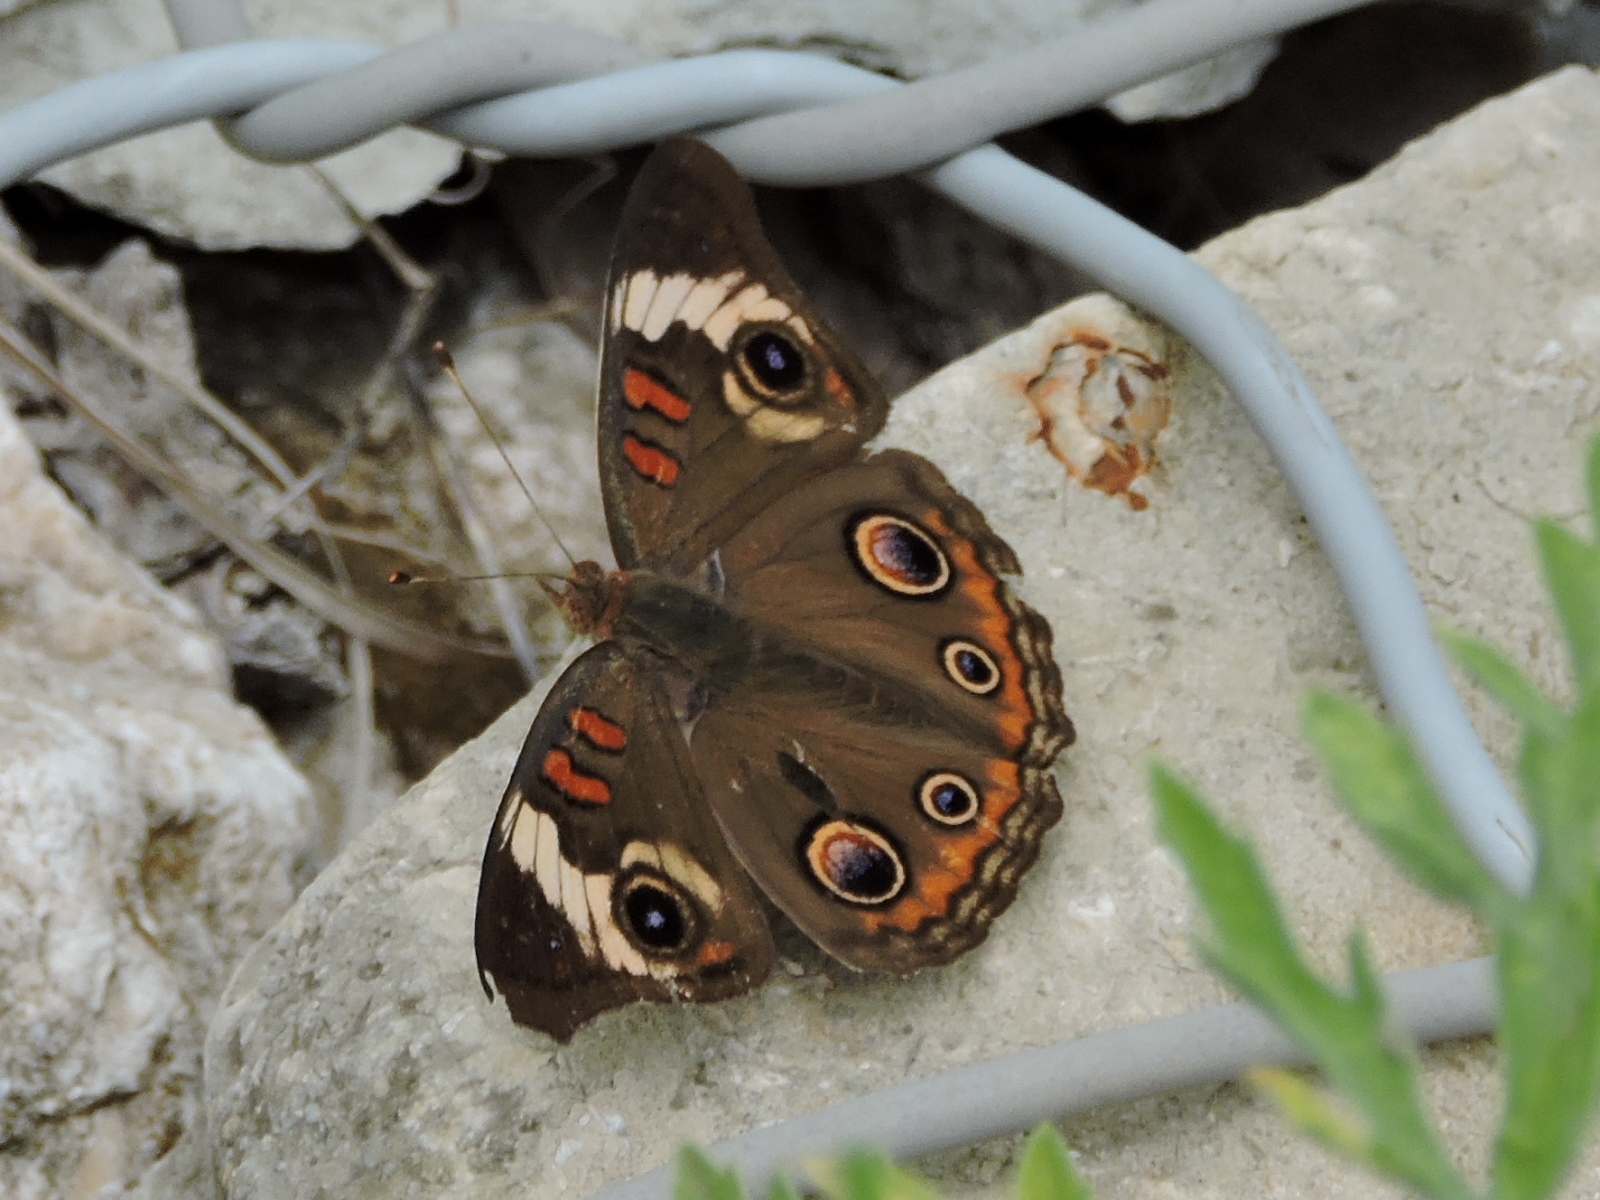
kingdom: Animalia
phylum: Arthropoda
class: Insecta
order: Lepidoptera
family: Nymphalidae
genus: Junonia
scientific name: Junonia coenia
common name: Common buckeye
